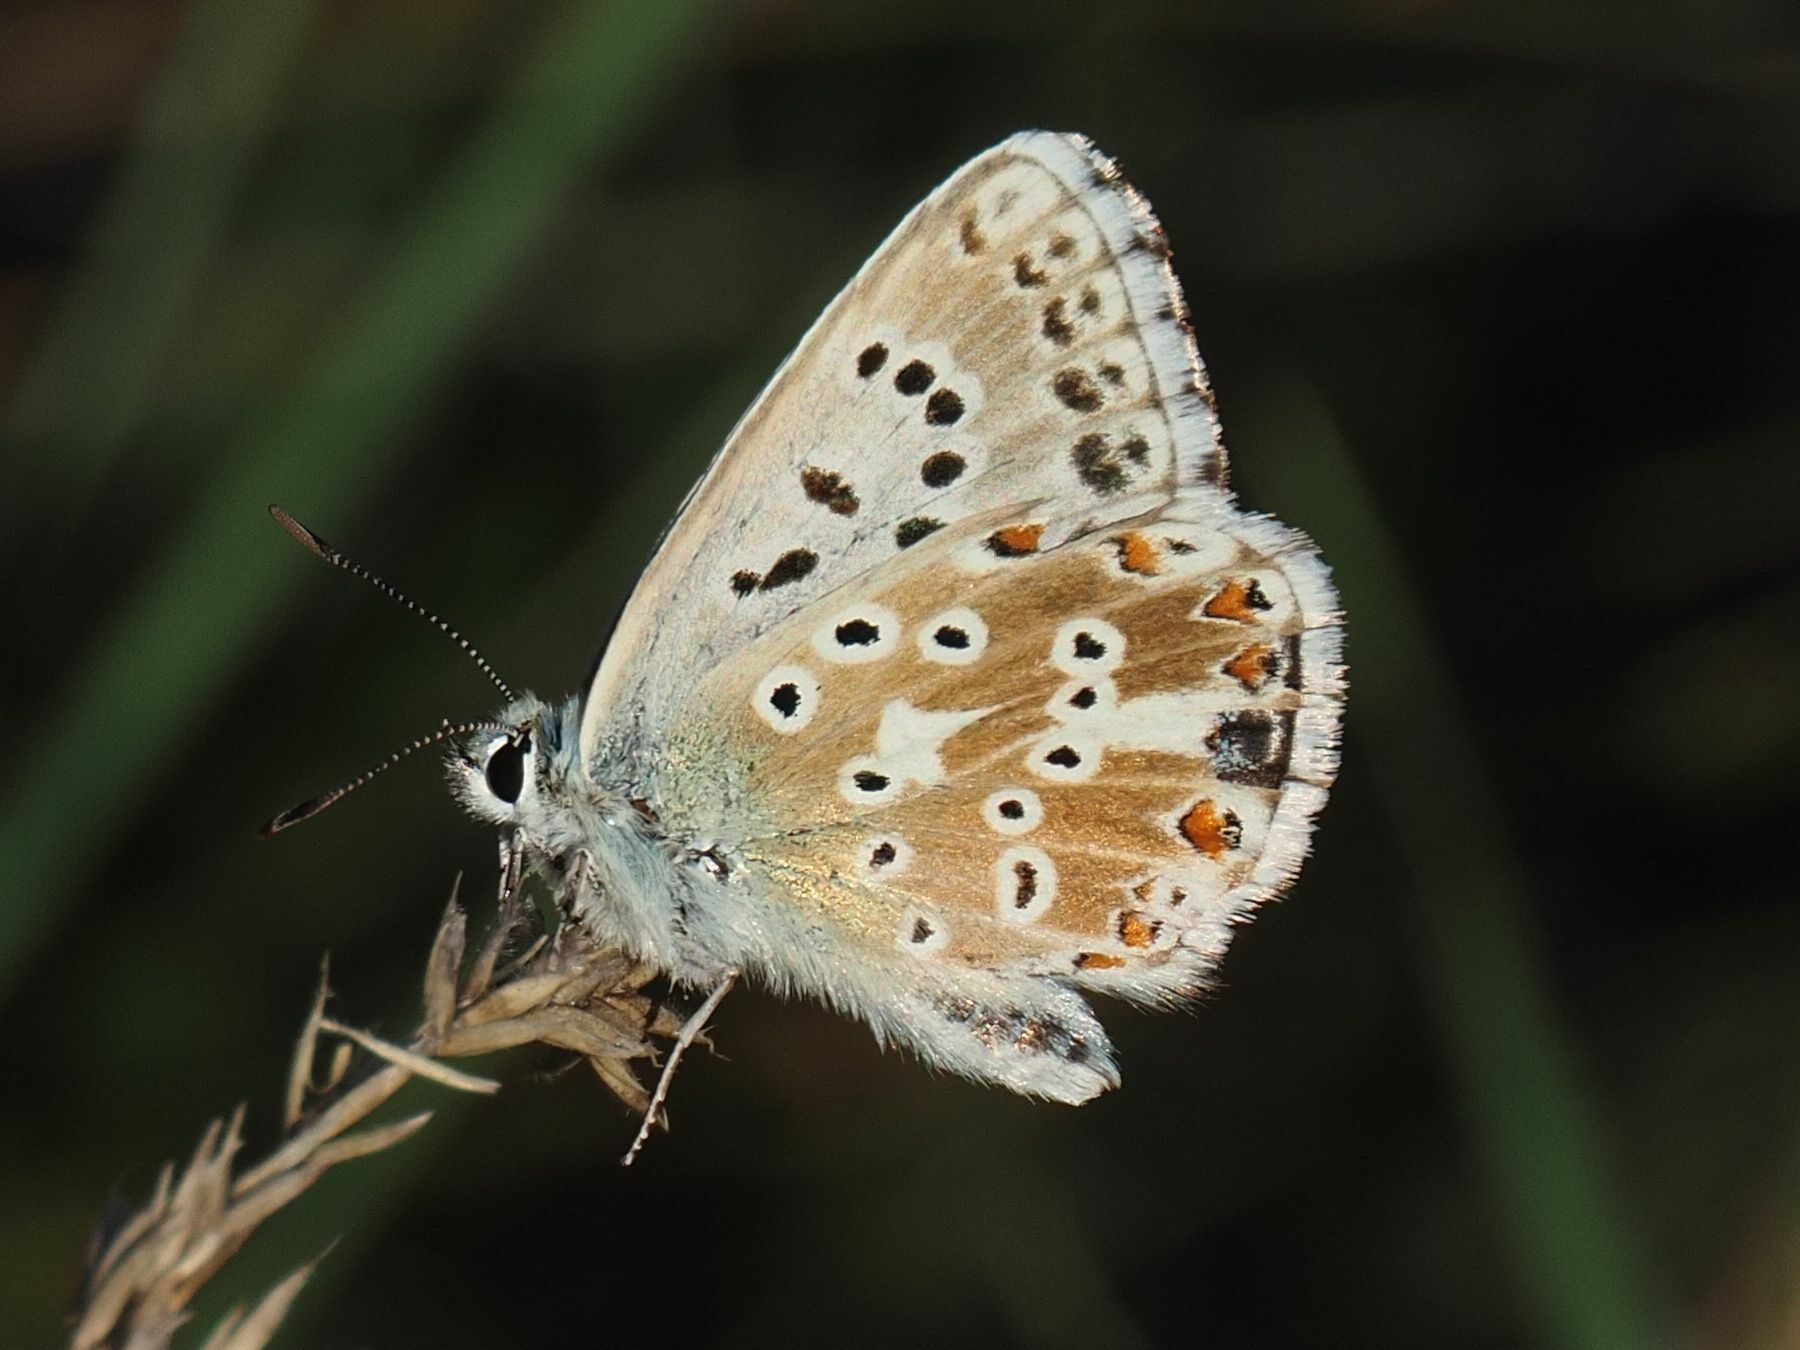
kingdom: Animalia
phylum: Arthropoda
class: Insecta
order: Lepidoptera
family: Lycaenidae
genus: Lysandra
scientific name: Lysandra coridon
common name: Chalkhill blue
